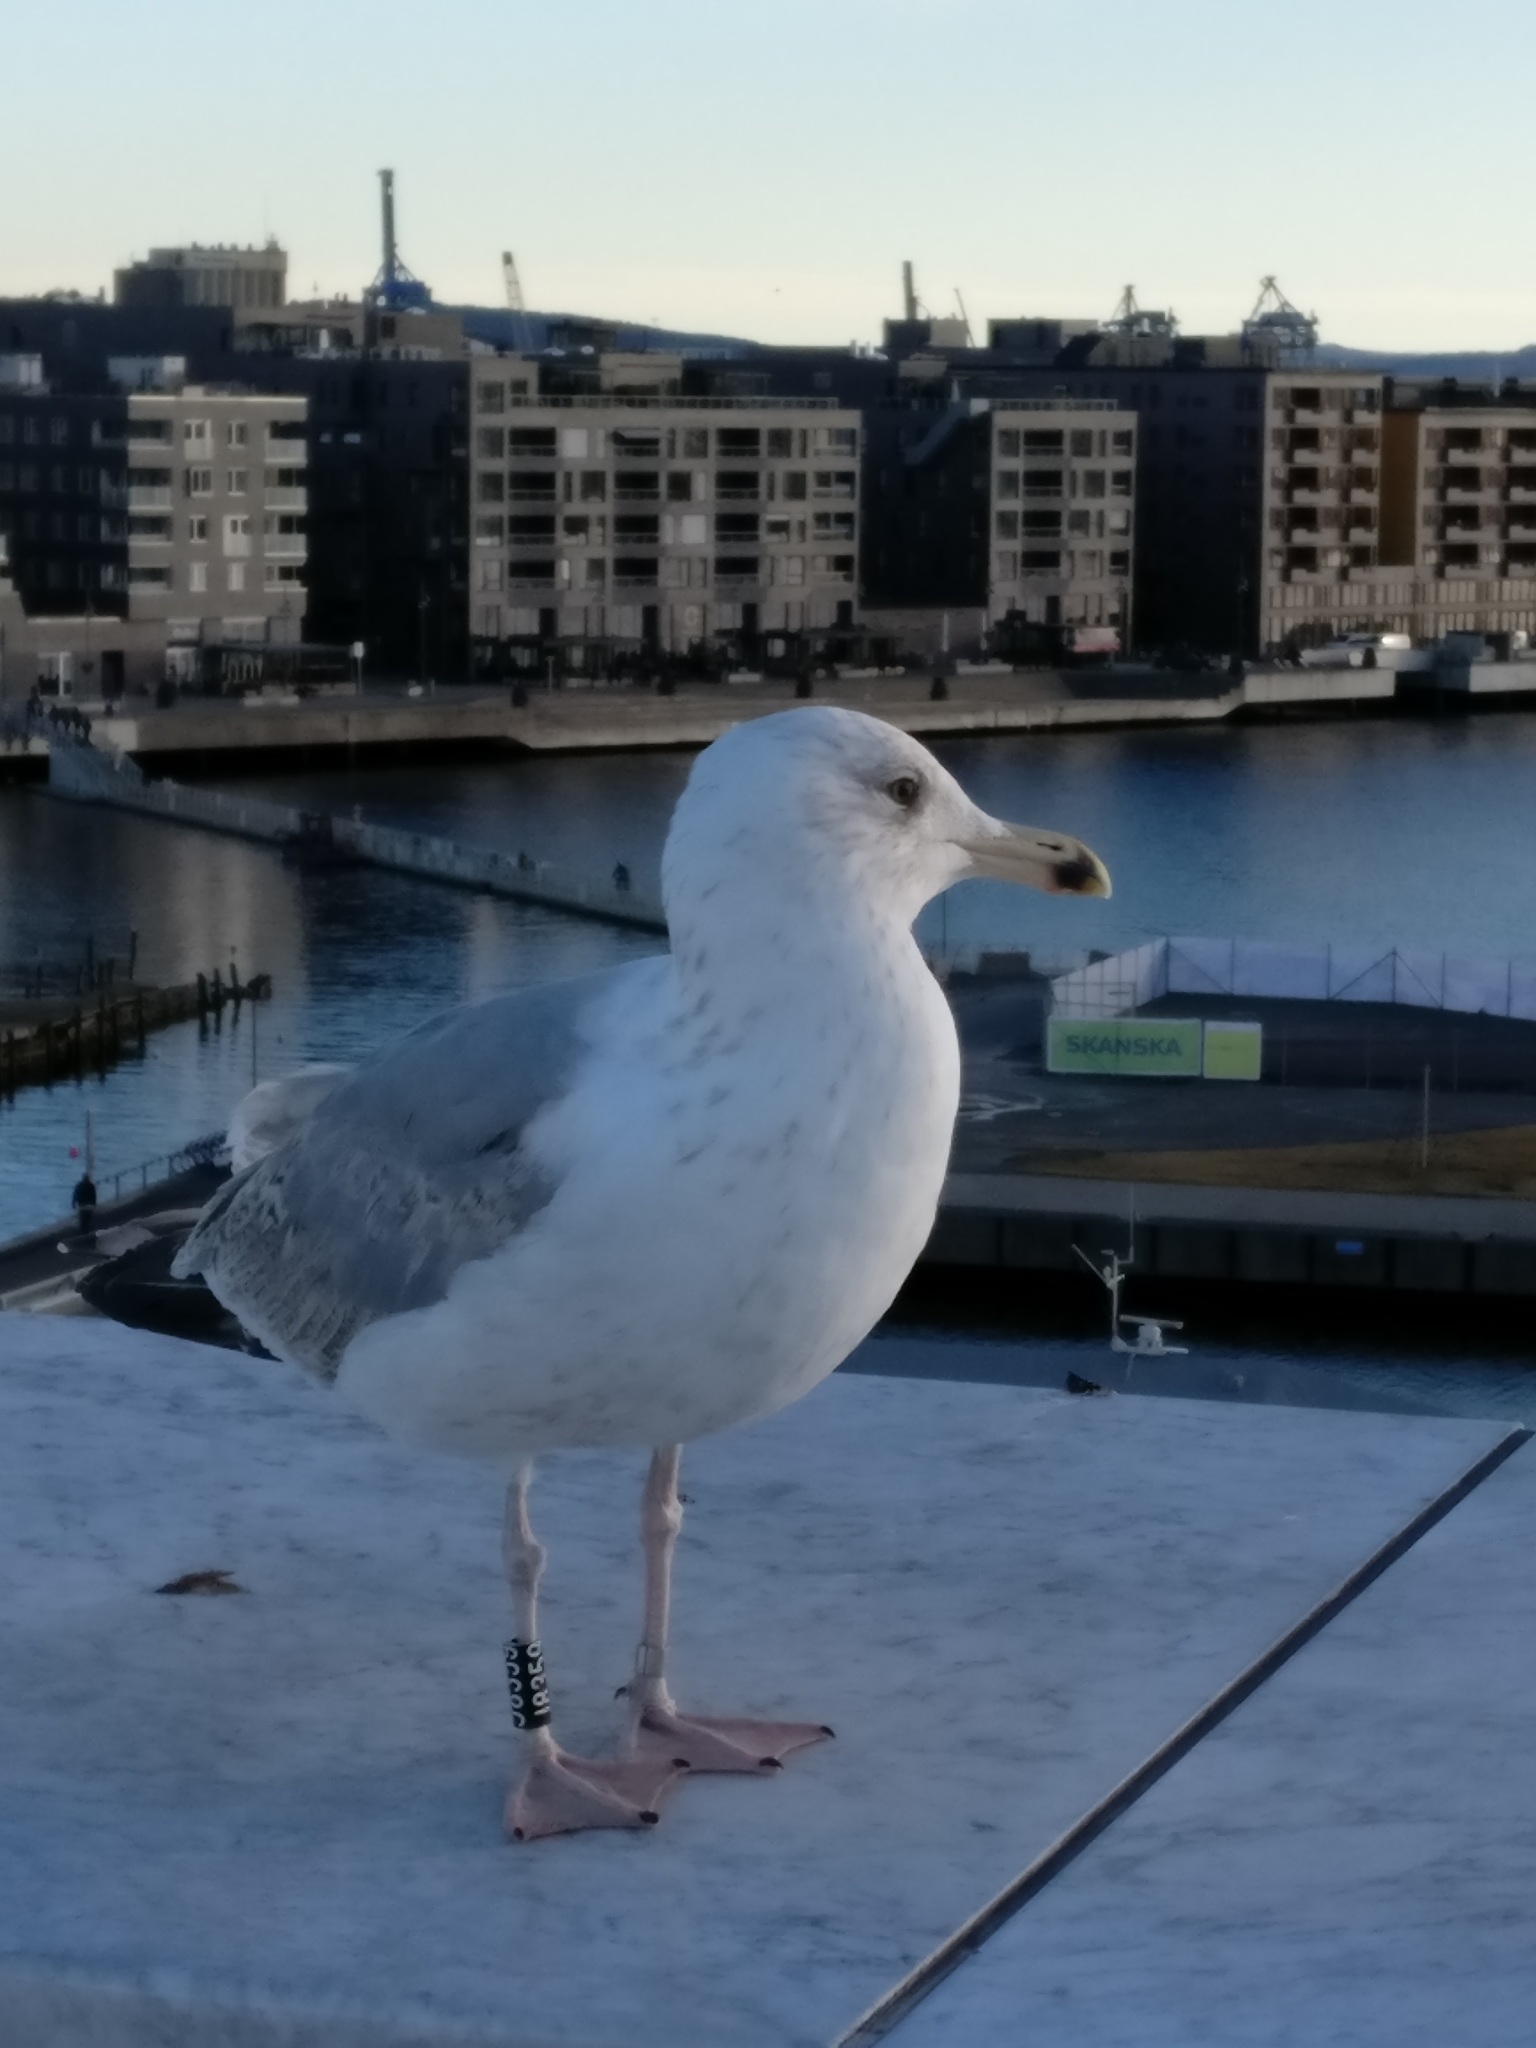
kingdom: Animalia
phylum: Chordata
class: Aves
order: Charadriiformes
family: Laridae
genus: Larus
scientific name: Larus argentatus
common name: Herring gull
